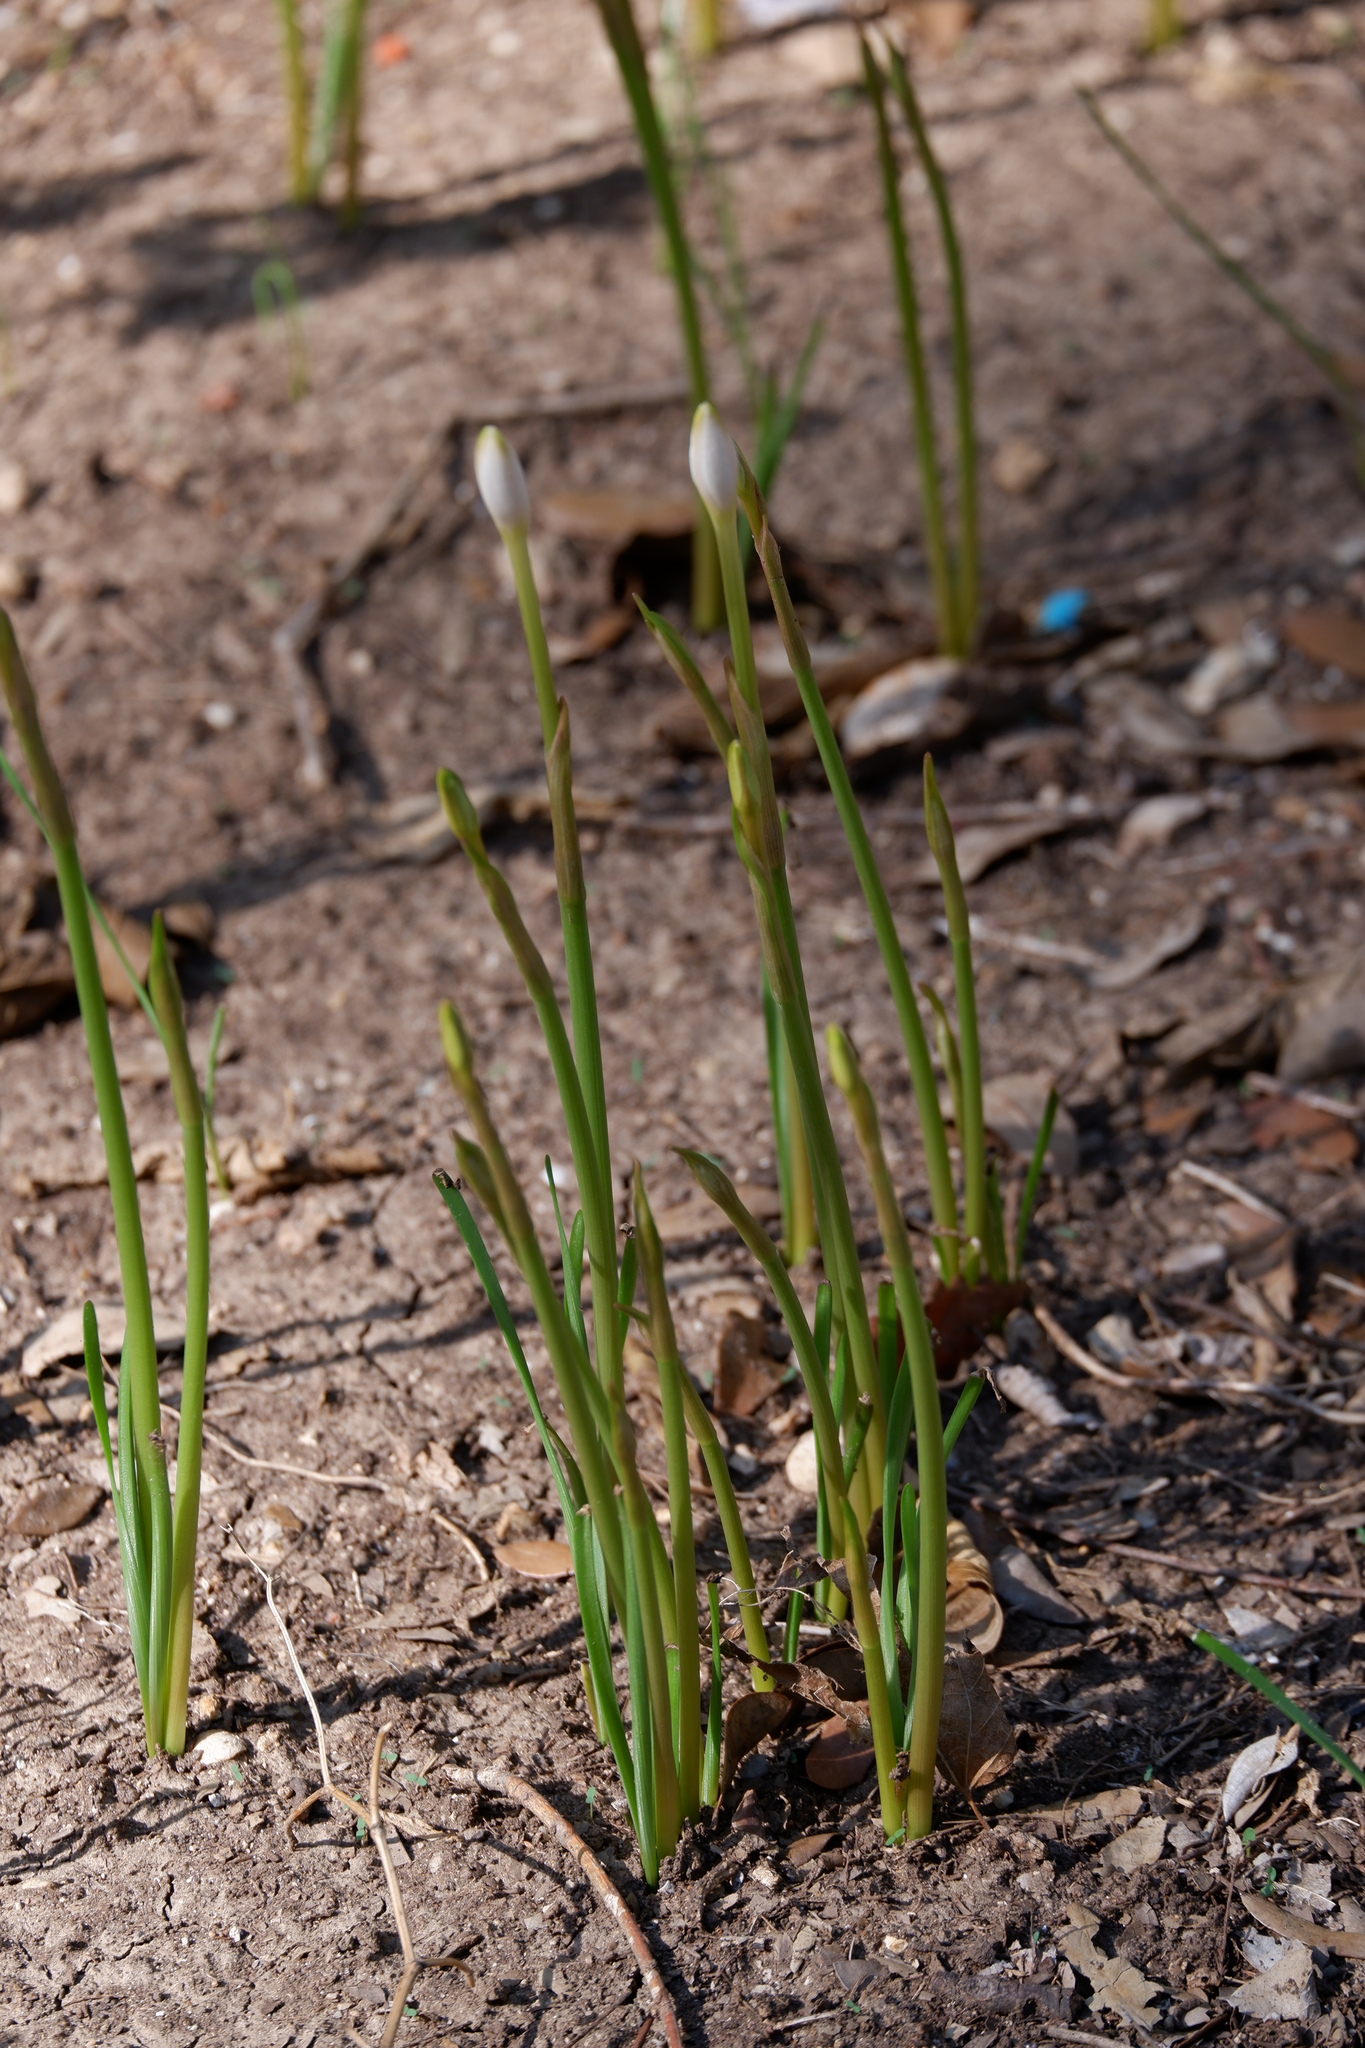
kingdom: Plantae
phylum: Tracheophyta
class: Liliopsida
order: Asparagales
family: Amaryllidaceae
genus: Zephyranthes
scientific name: Zephyranthes
